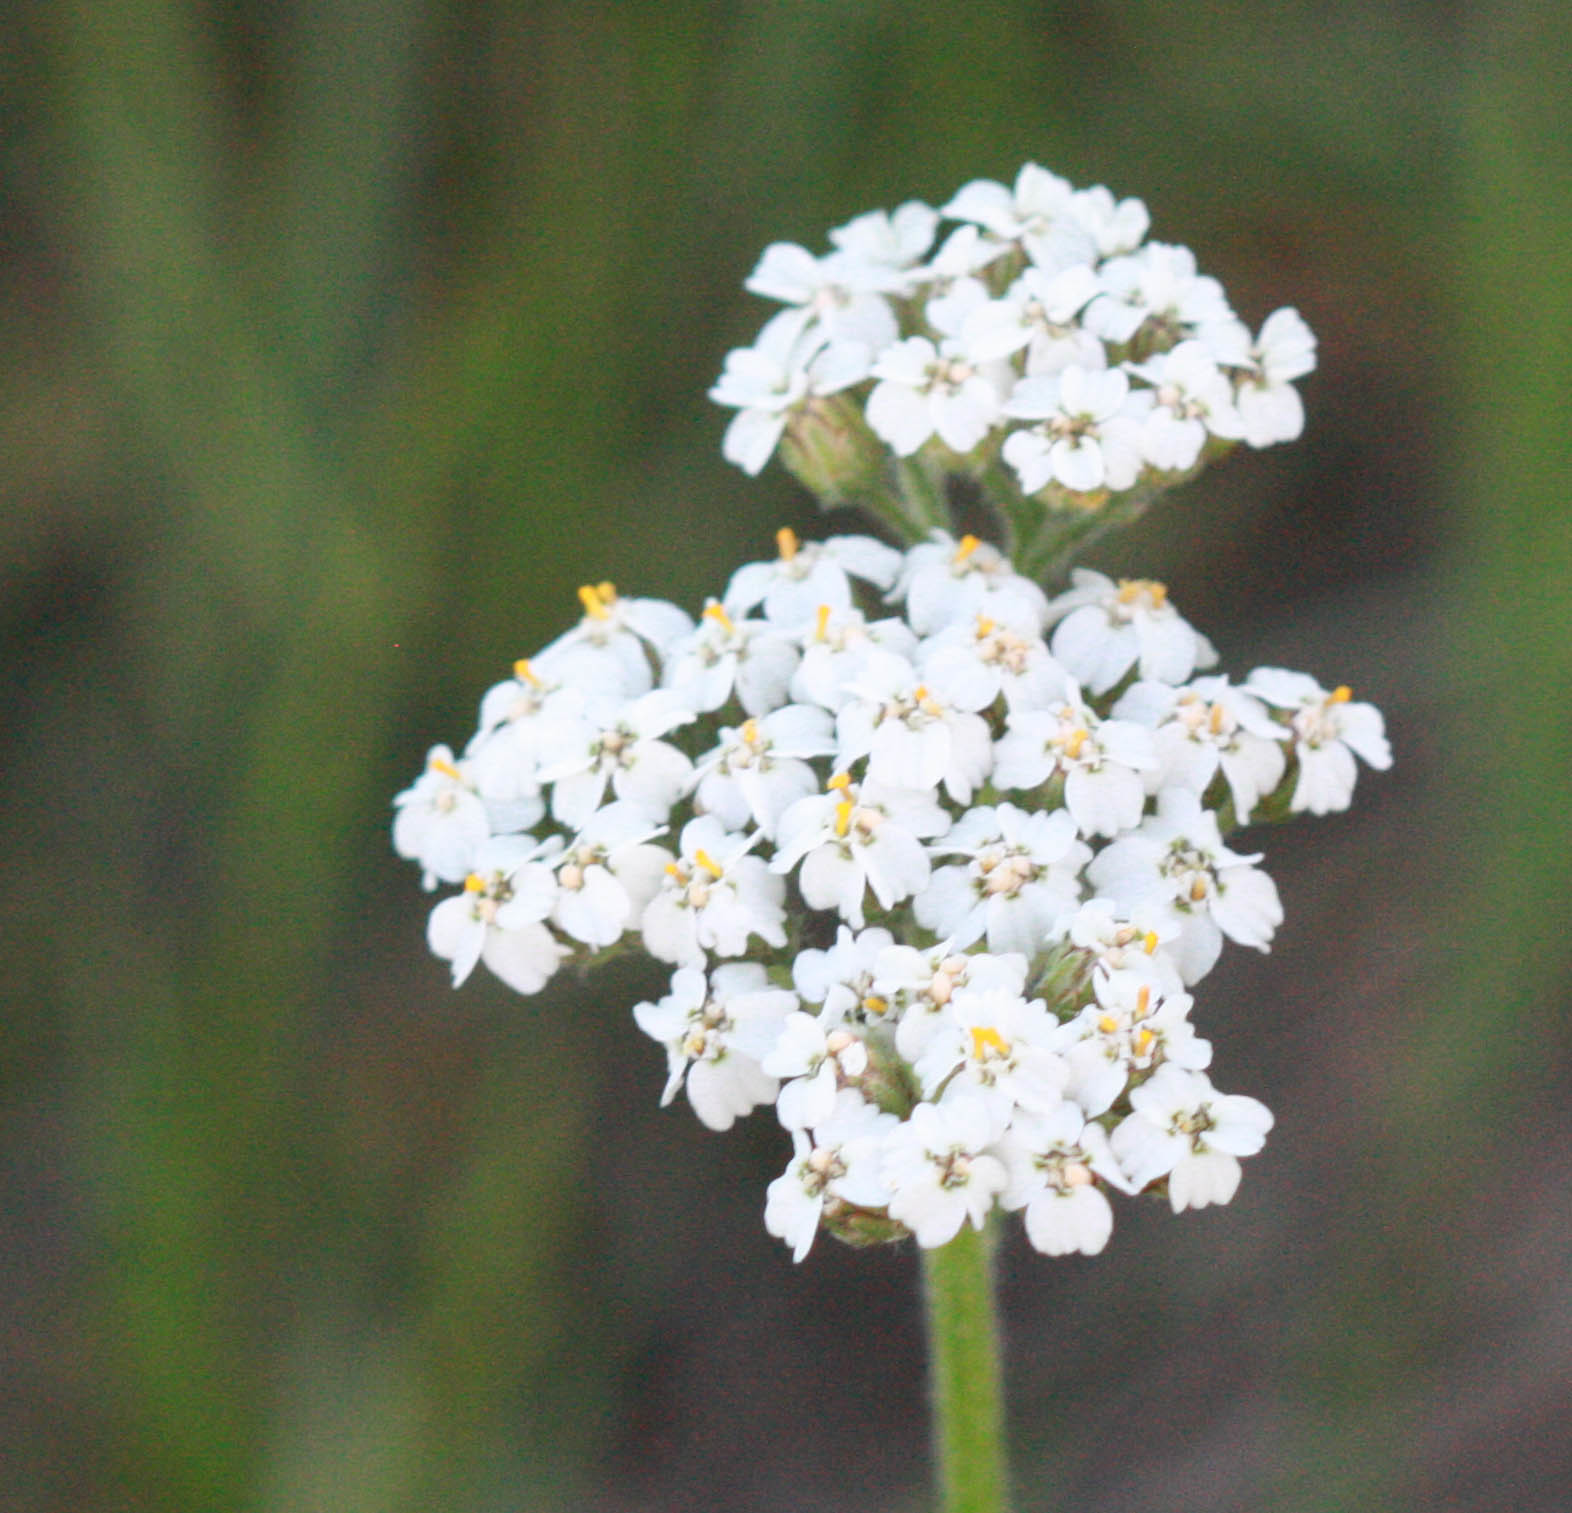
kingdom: Plantae
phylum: Tracheophyta
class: Magnoliopsida
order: Asterales
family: Asteraceae
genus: Achillea
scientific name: Achillea millefolium
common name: Yarrow
